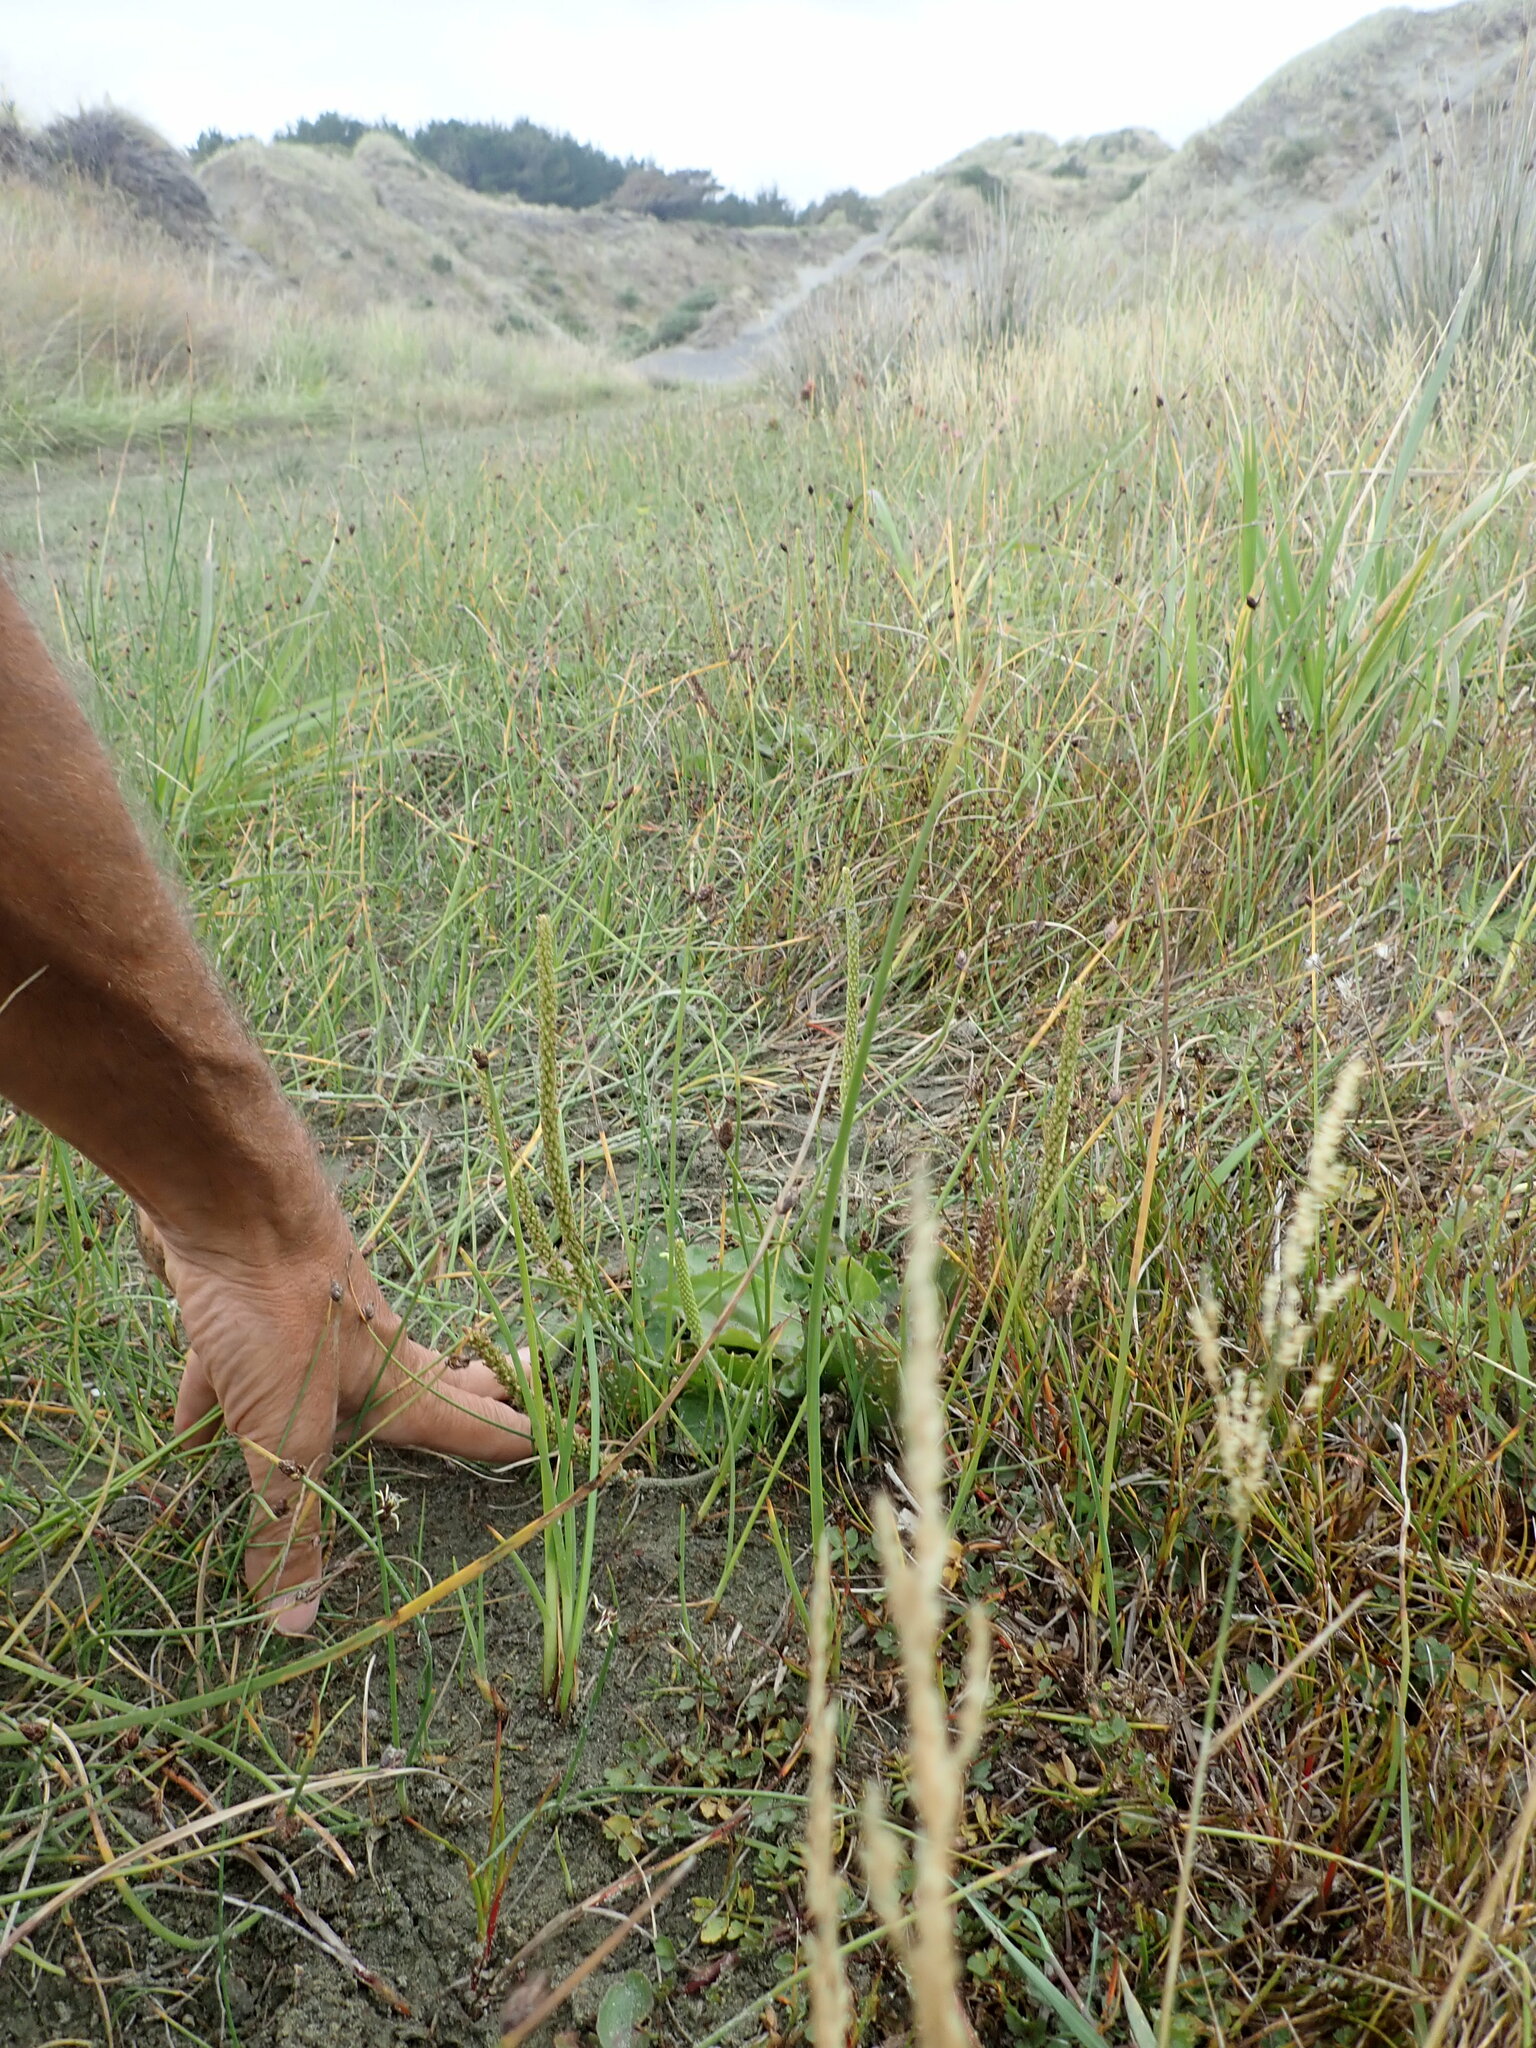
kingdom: Plantae
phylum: Tracheophyta
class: Magnoliopsida
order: Lamiales
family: Plantaginaceae
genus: Plantago
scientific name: Plantago major
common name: Common plantain
